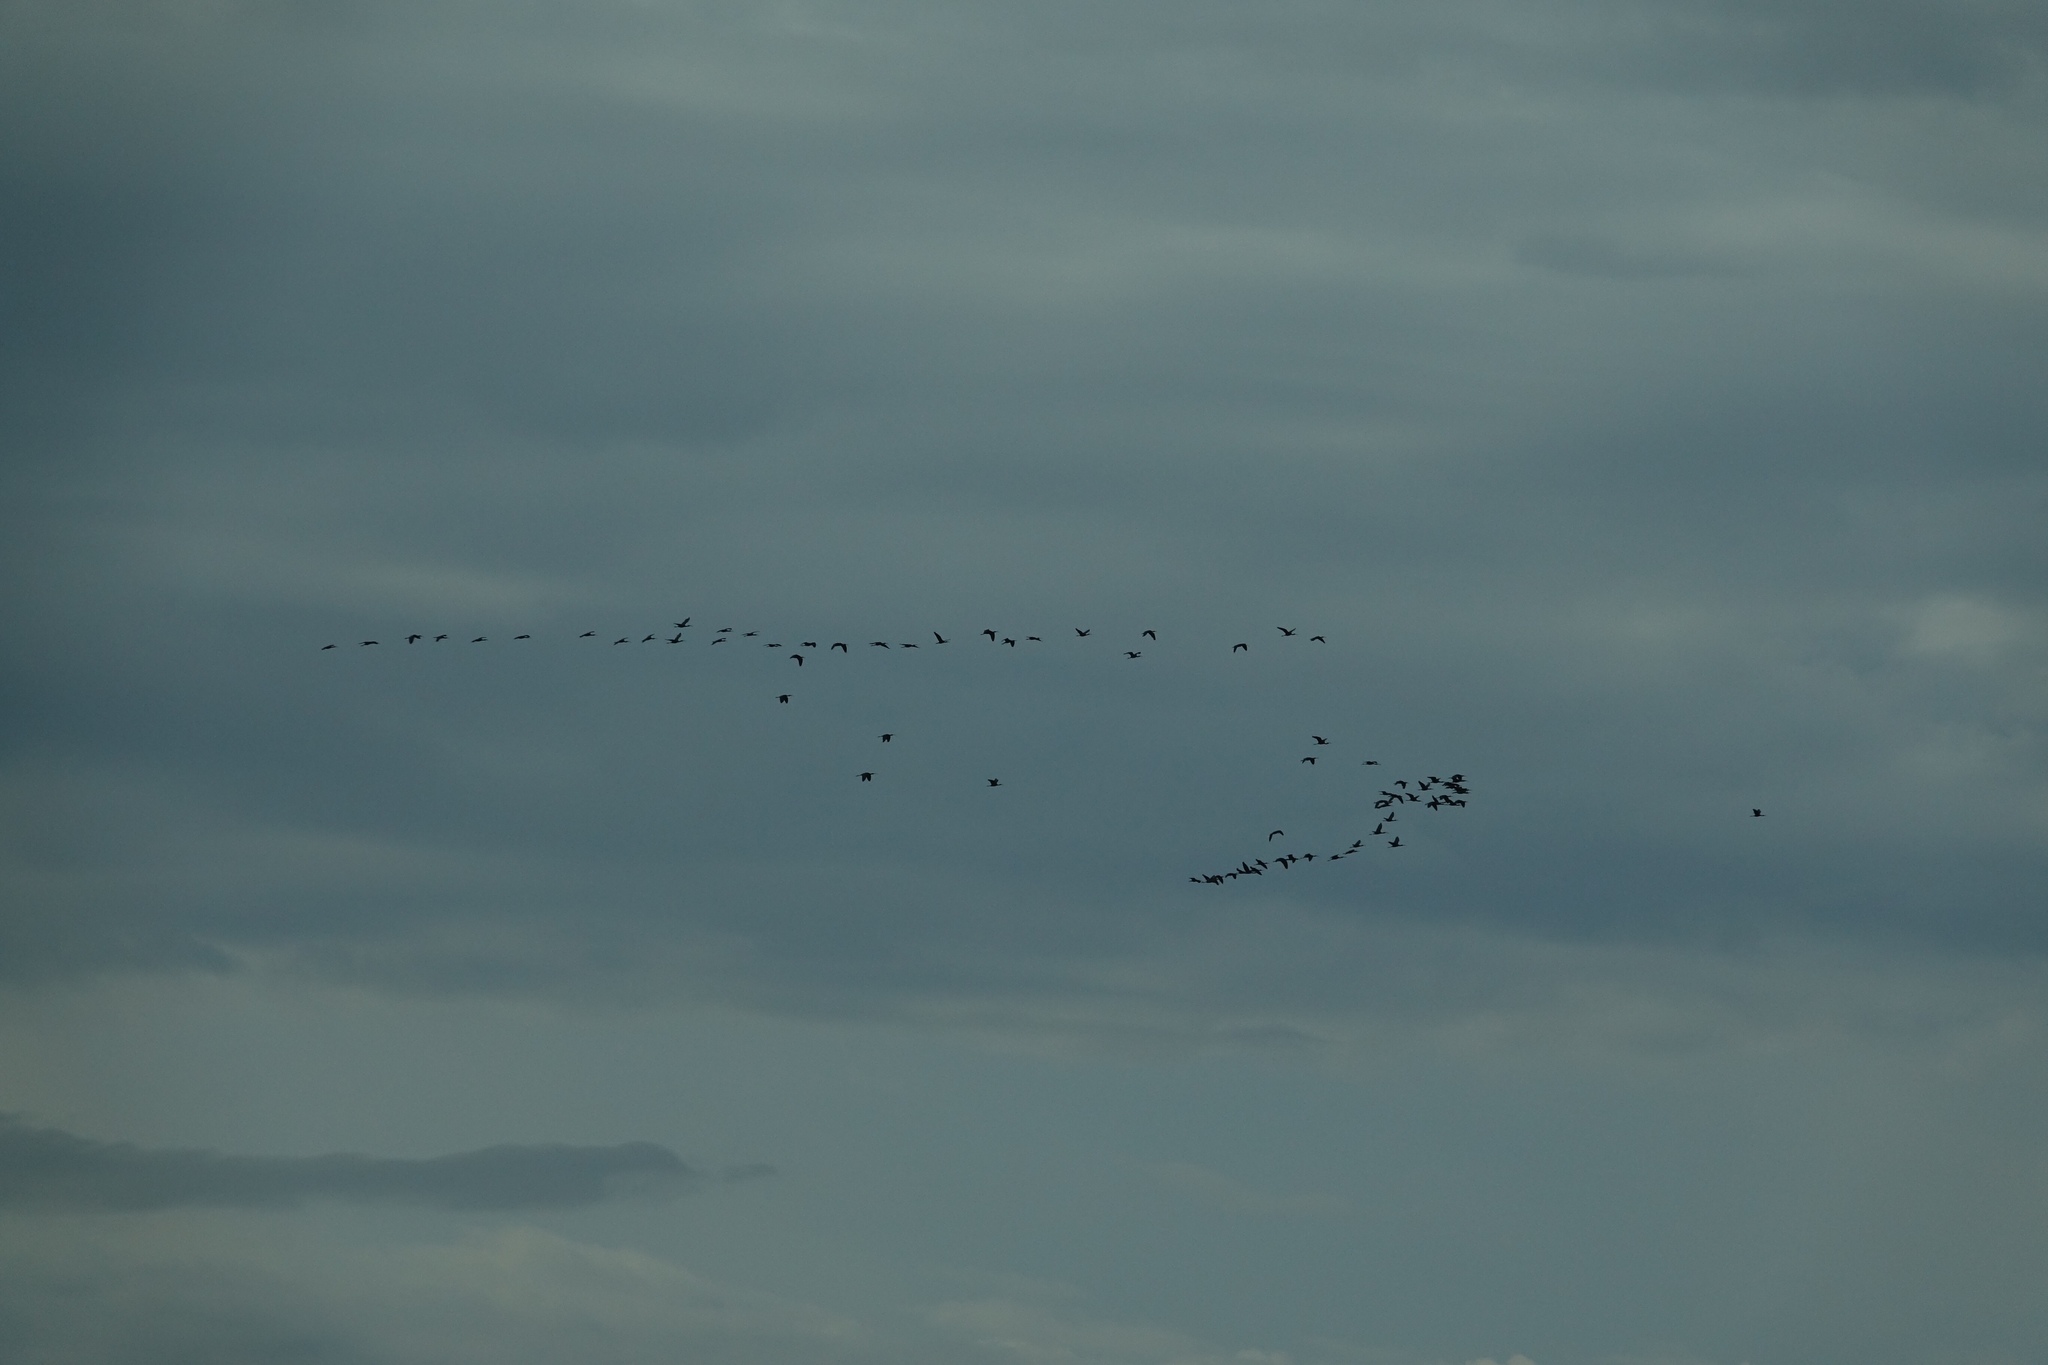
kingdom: Animalia
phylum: Chordata
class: Aves
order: Pelecaniformes
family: Threskiornithidae
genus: Plegadis
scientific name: Plegadis chihi
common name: White-faced ibis
